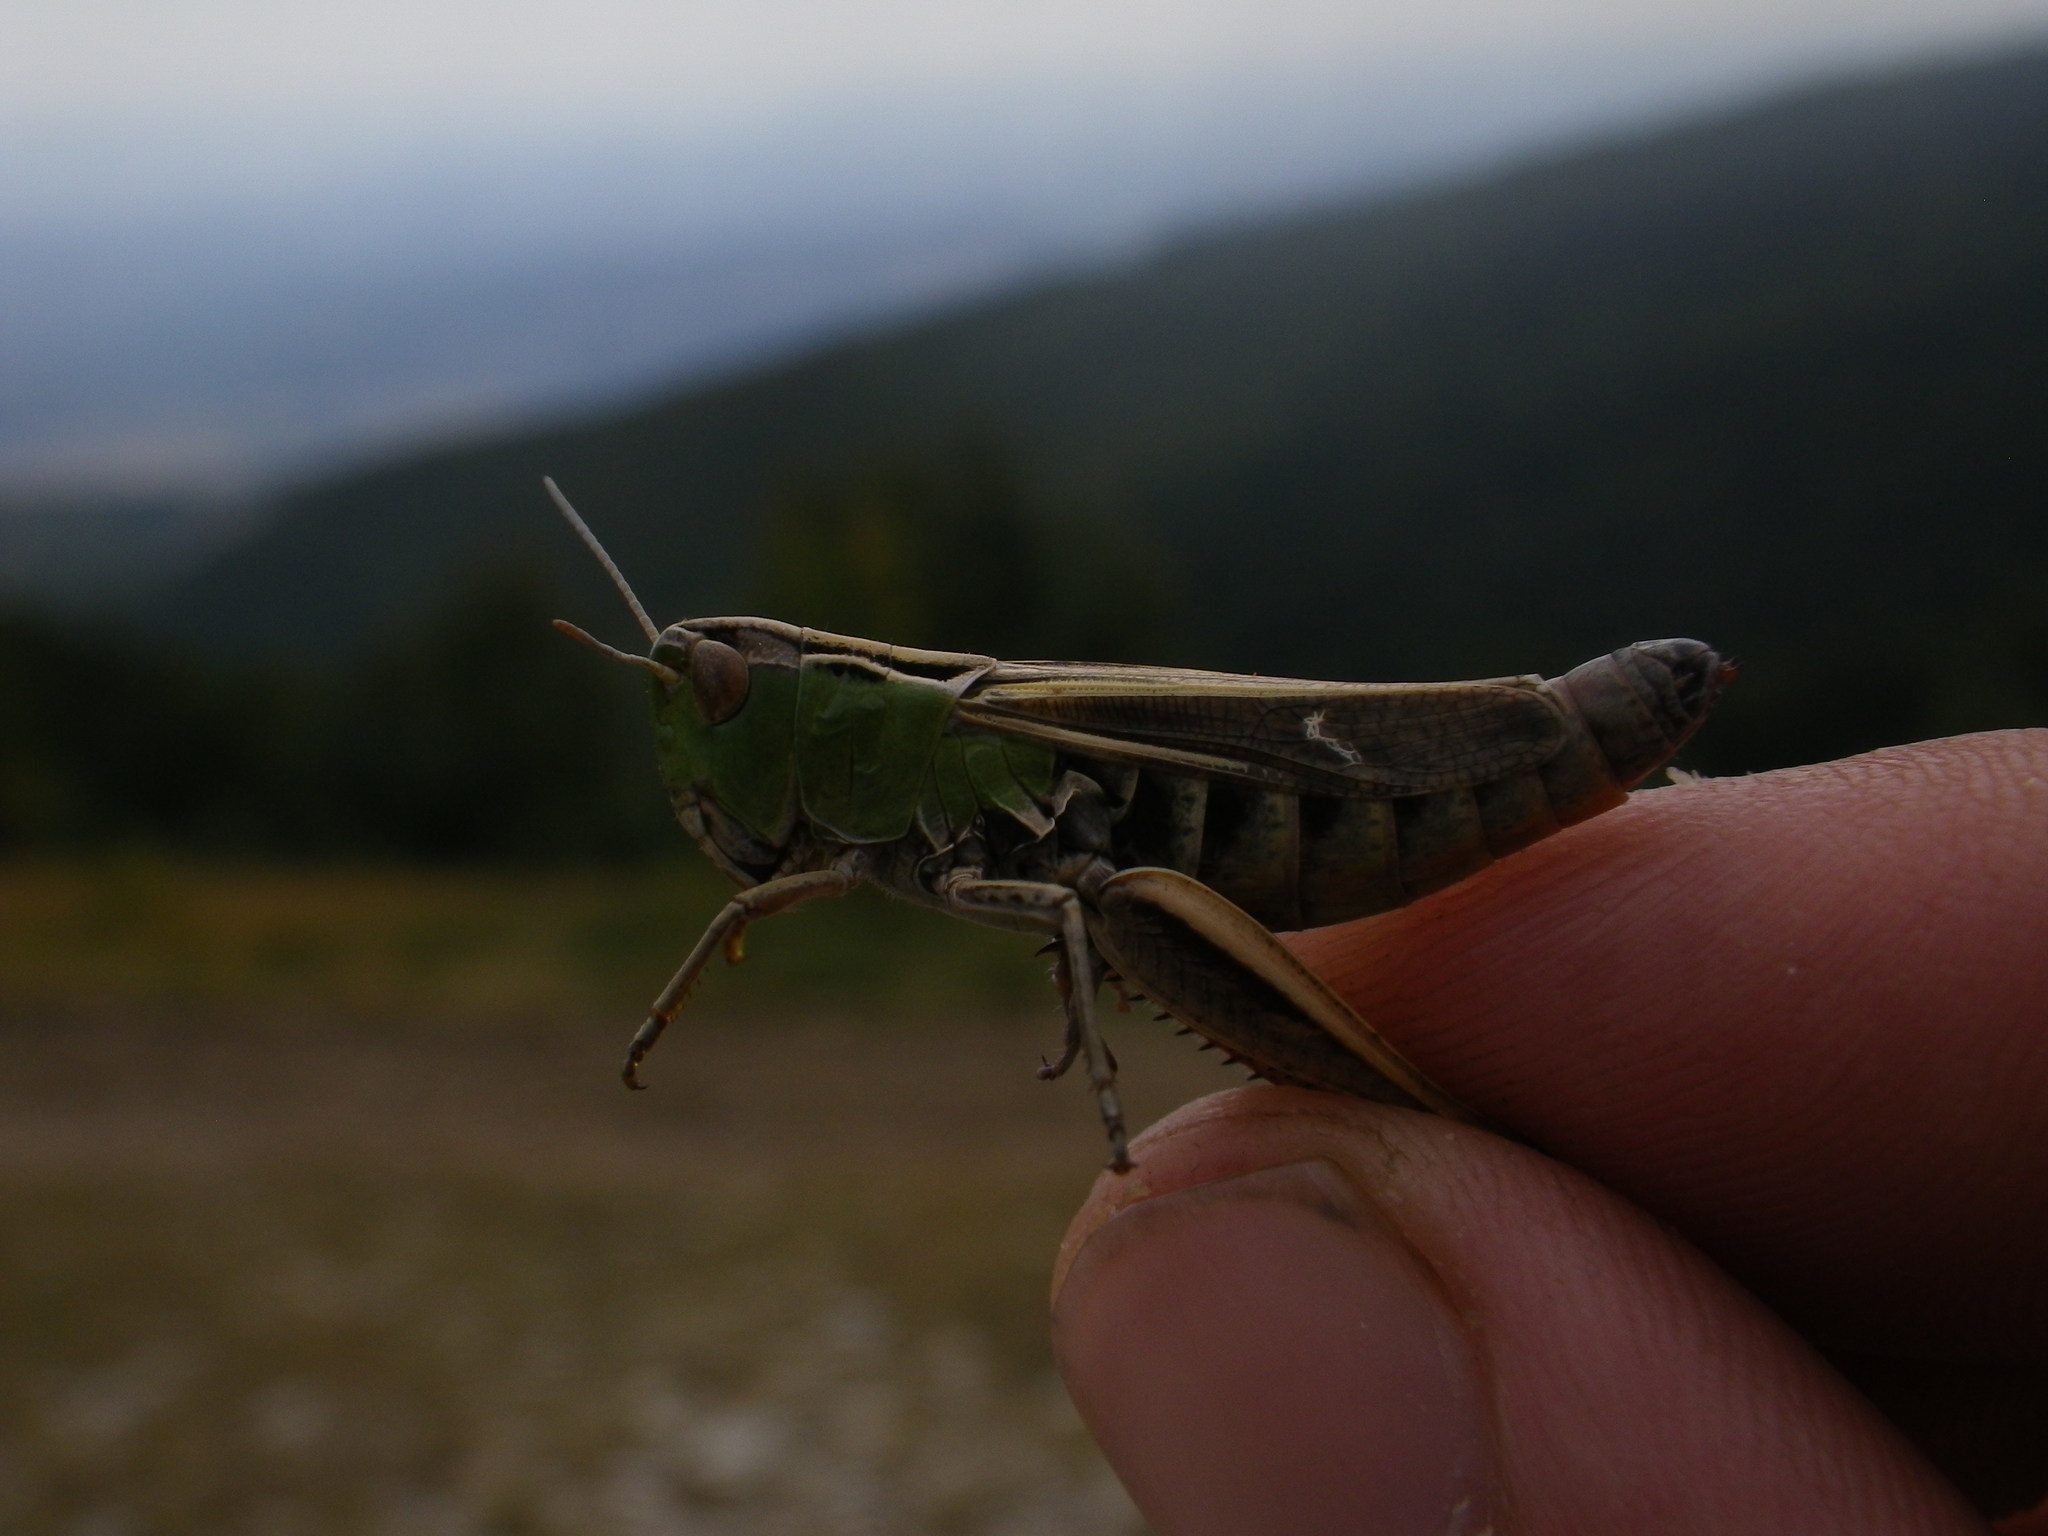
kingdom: Animalia
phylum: Arthropoda
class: Insecta
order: Orthoptera
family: Acrididae
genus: Stenobothrus
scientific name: Stenobothrus lineatus
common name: Stripe-winged grasshopper
